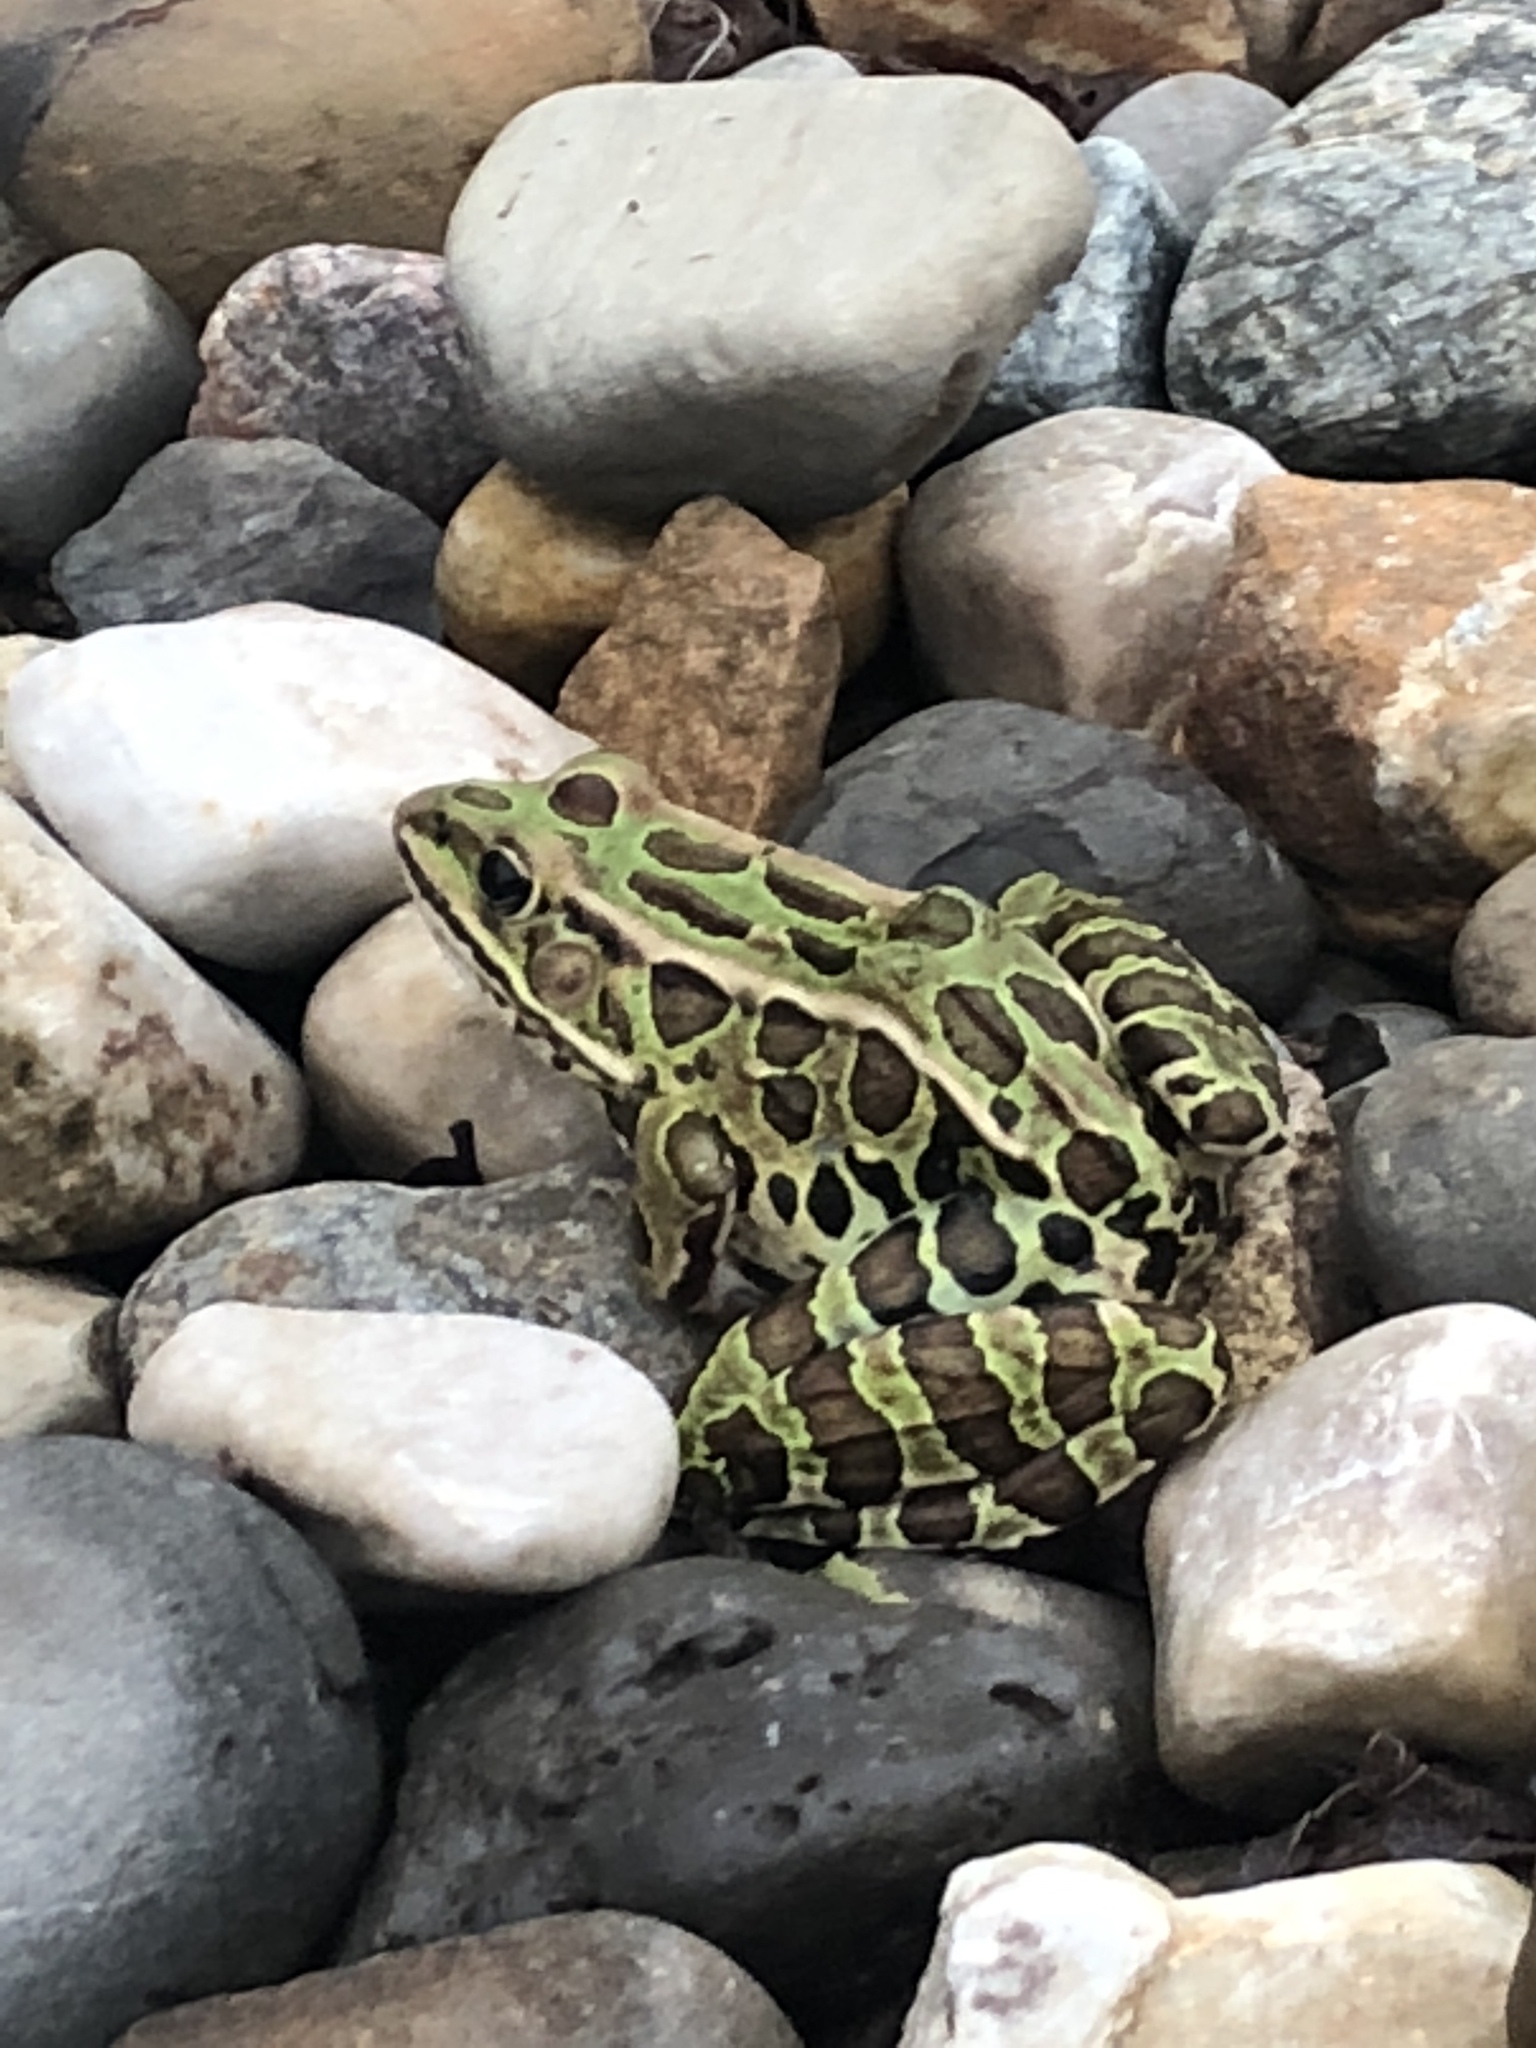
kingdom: Animalia
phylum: Chordata
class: Amphibia
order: Anura
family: Ranidae
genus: Lithobates
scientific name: Lithobates pipiens
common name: Northern leopard frog
